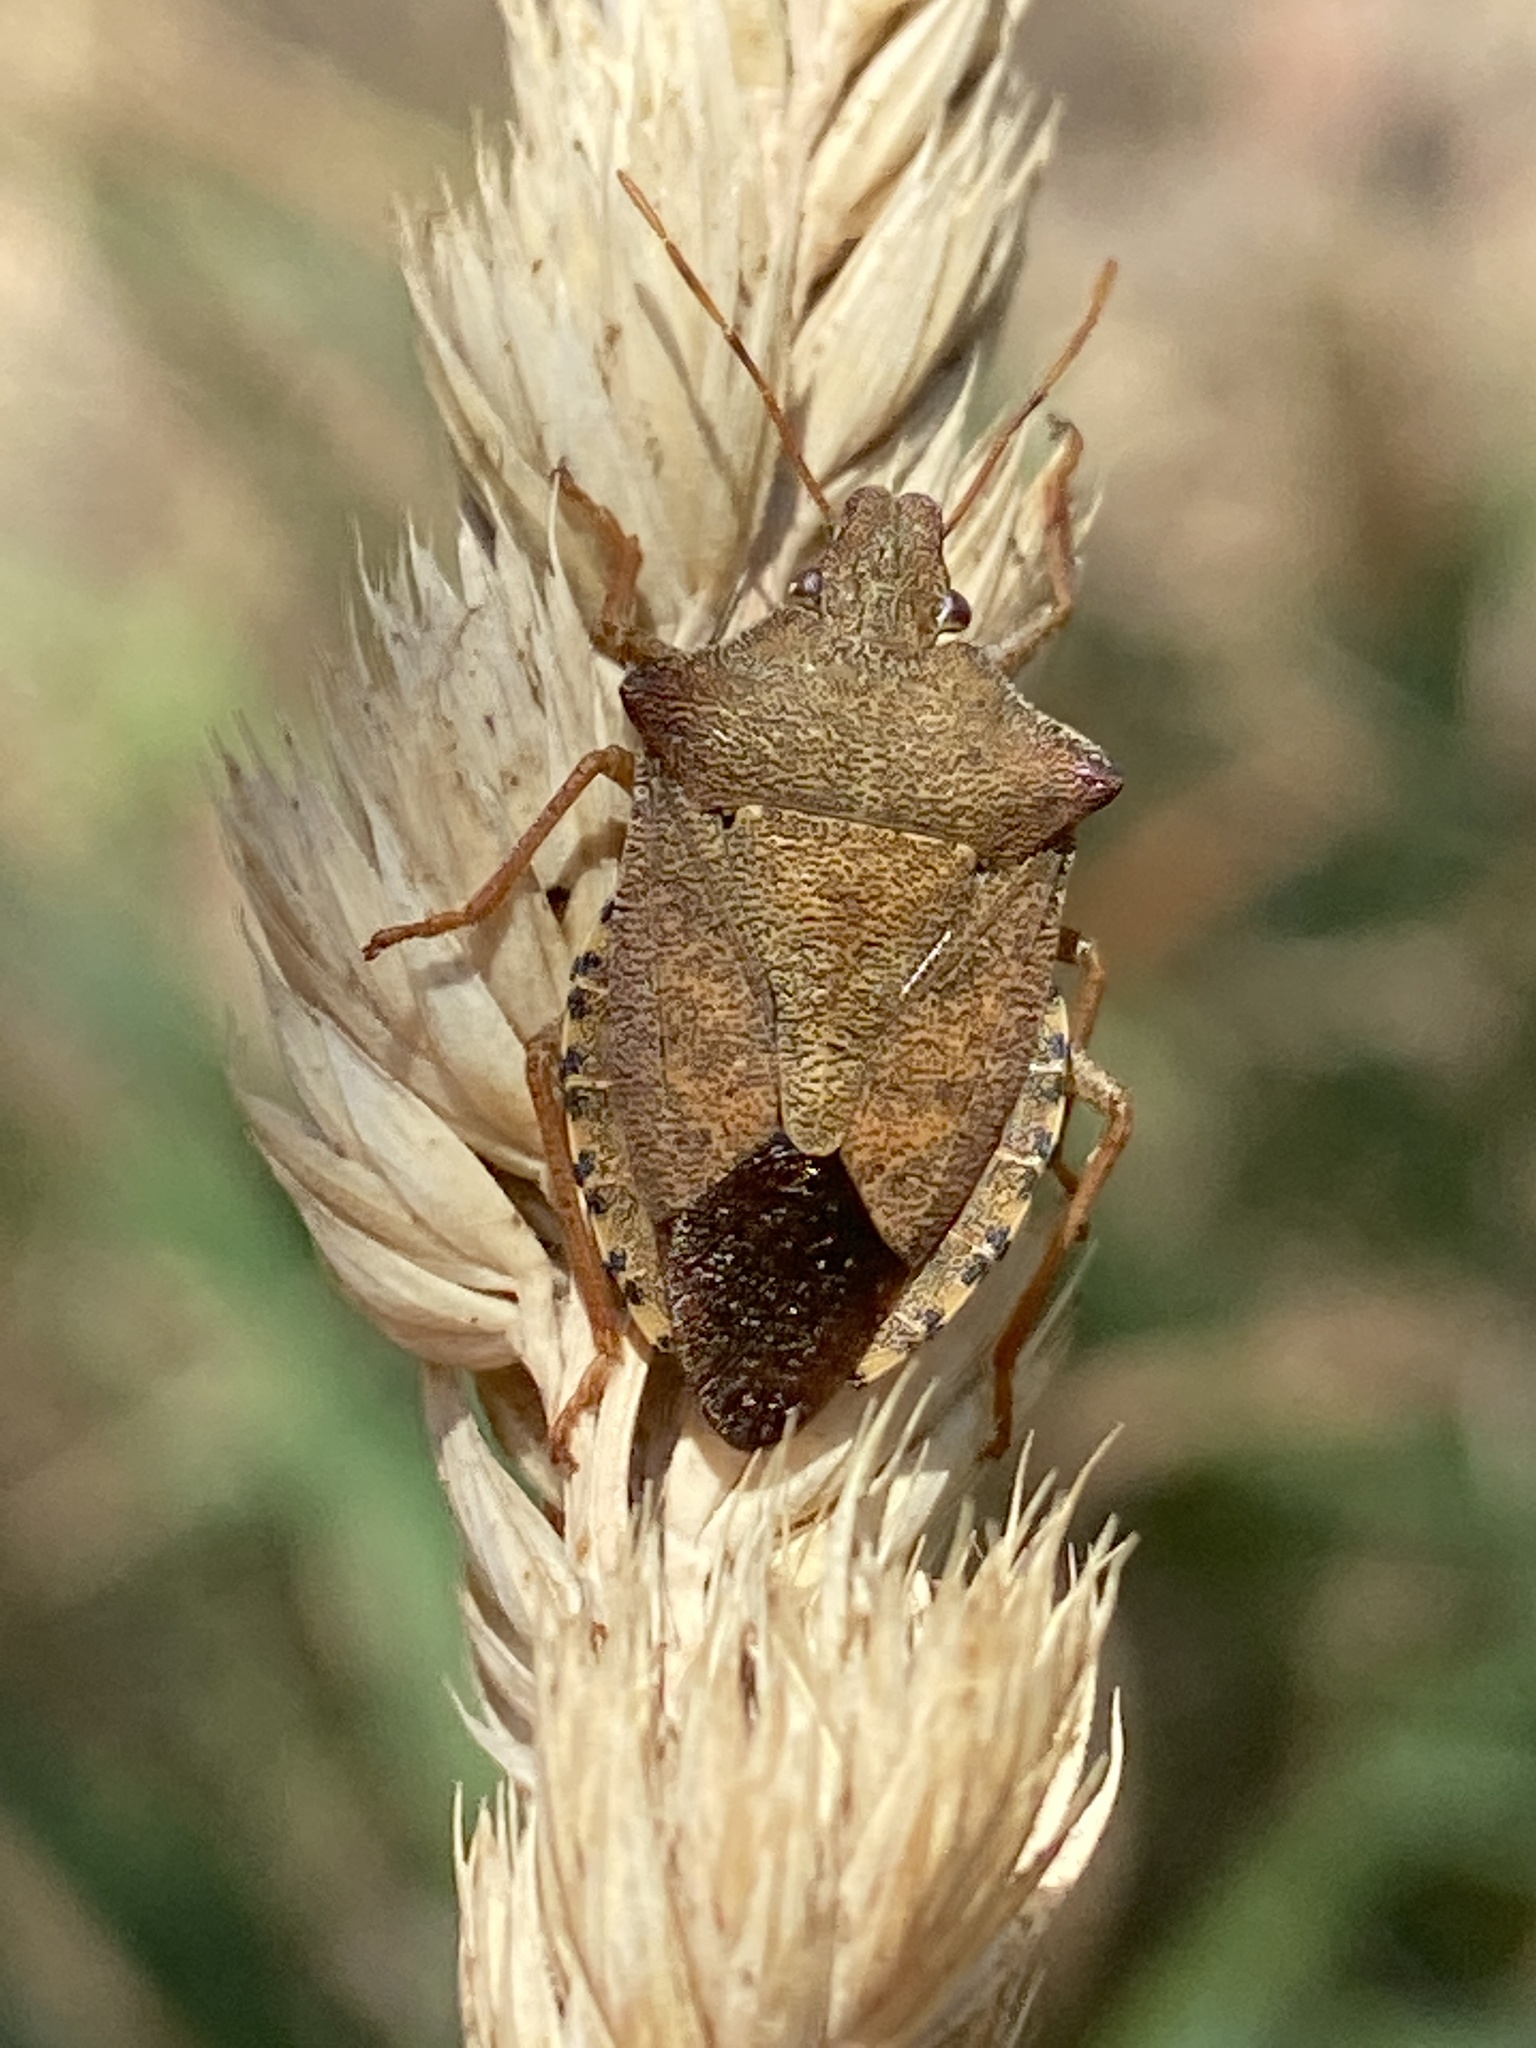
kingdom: Animalia
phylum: Arthropoda
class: Insecta
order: Hemiptera
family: Pentatomidae
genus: Arma
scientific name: Arma custos
